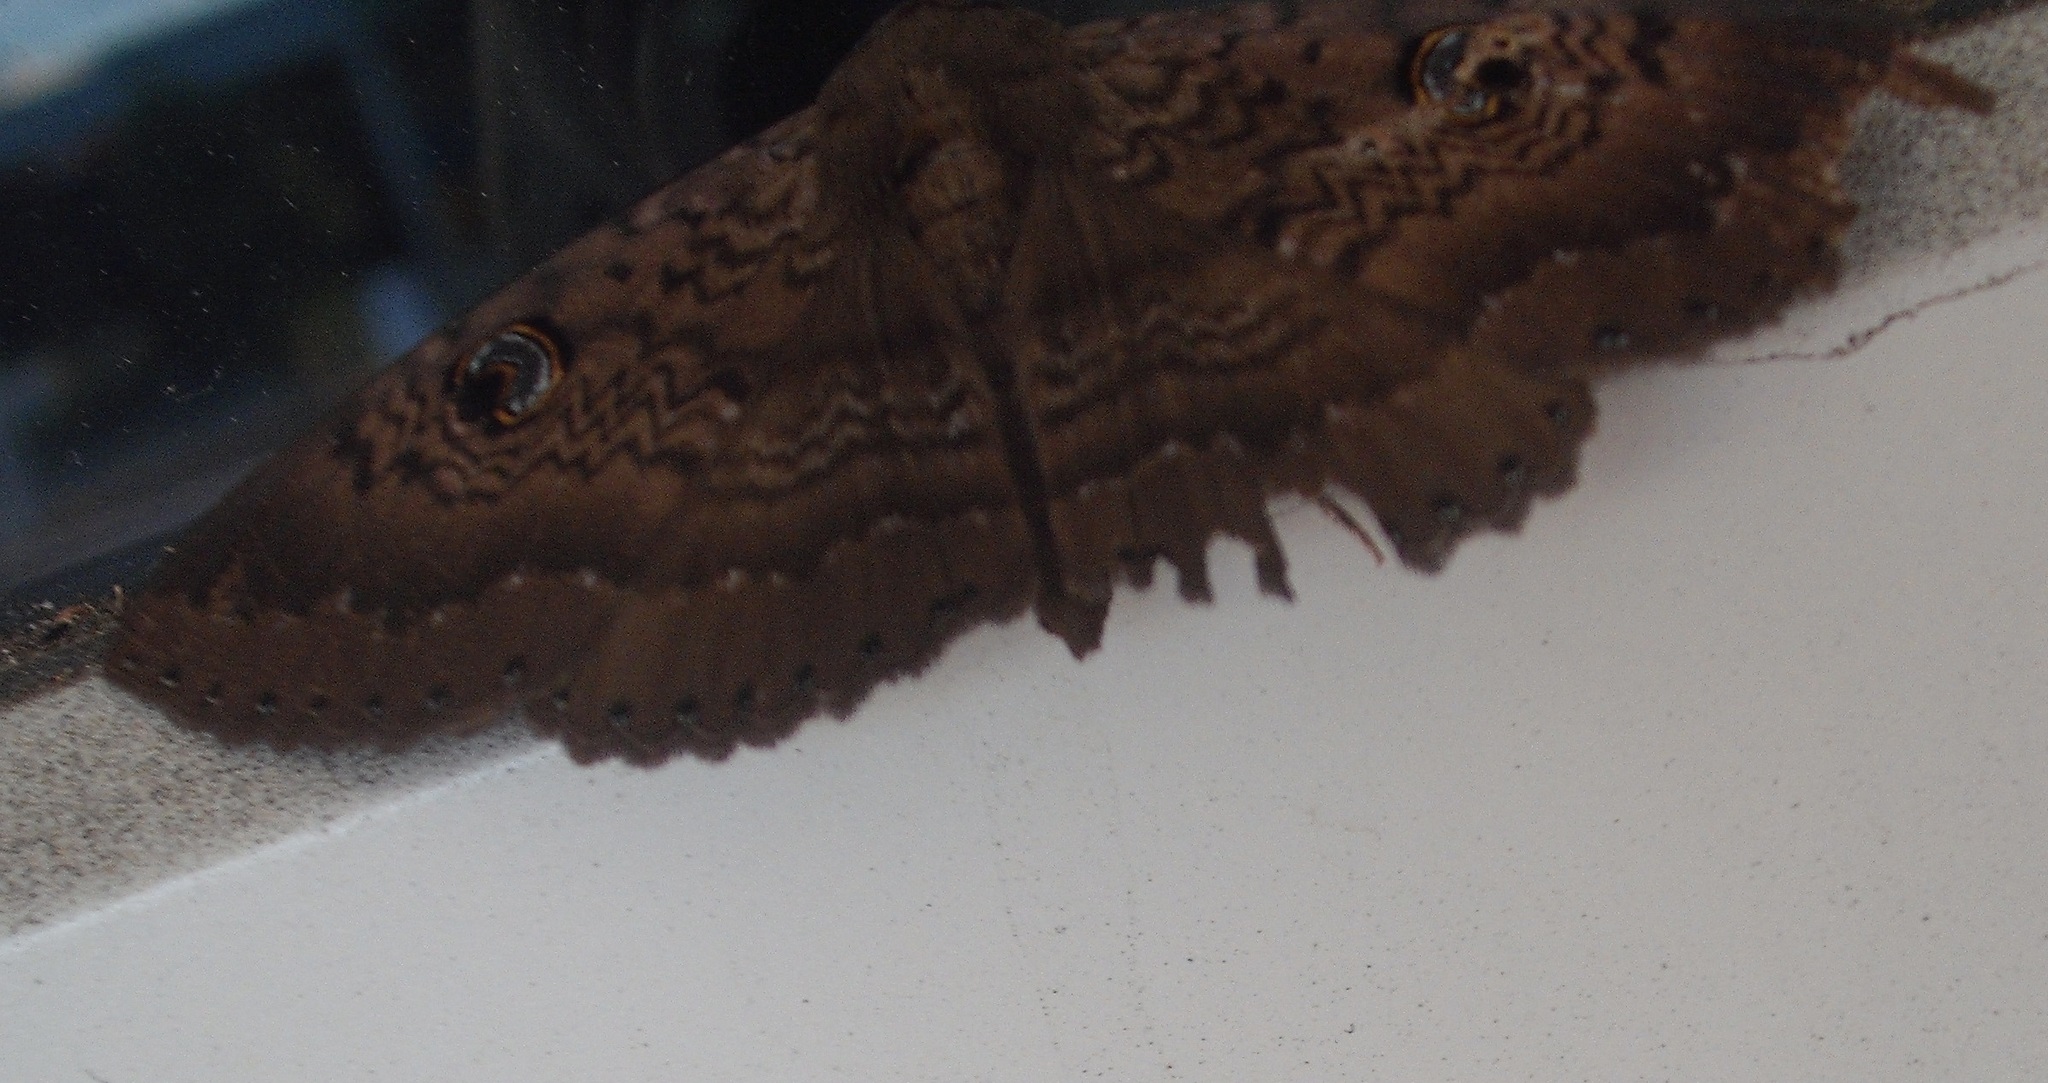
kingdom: Animalia
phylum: Arthropoda
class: Insecta
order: Lepidoptera
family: Erebidae
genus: Dasypodia
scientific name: Dasypodia cymatodes
